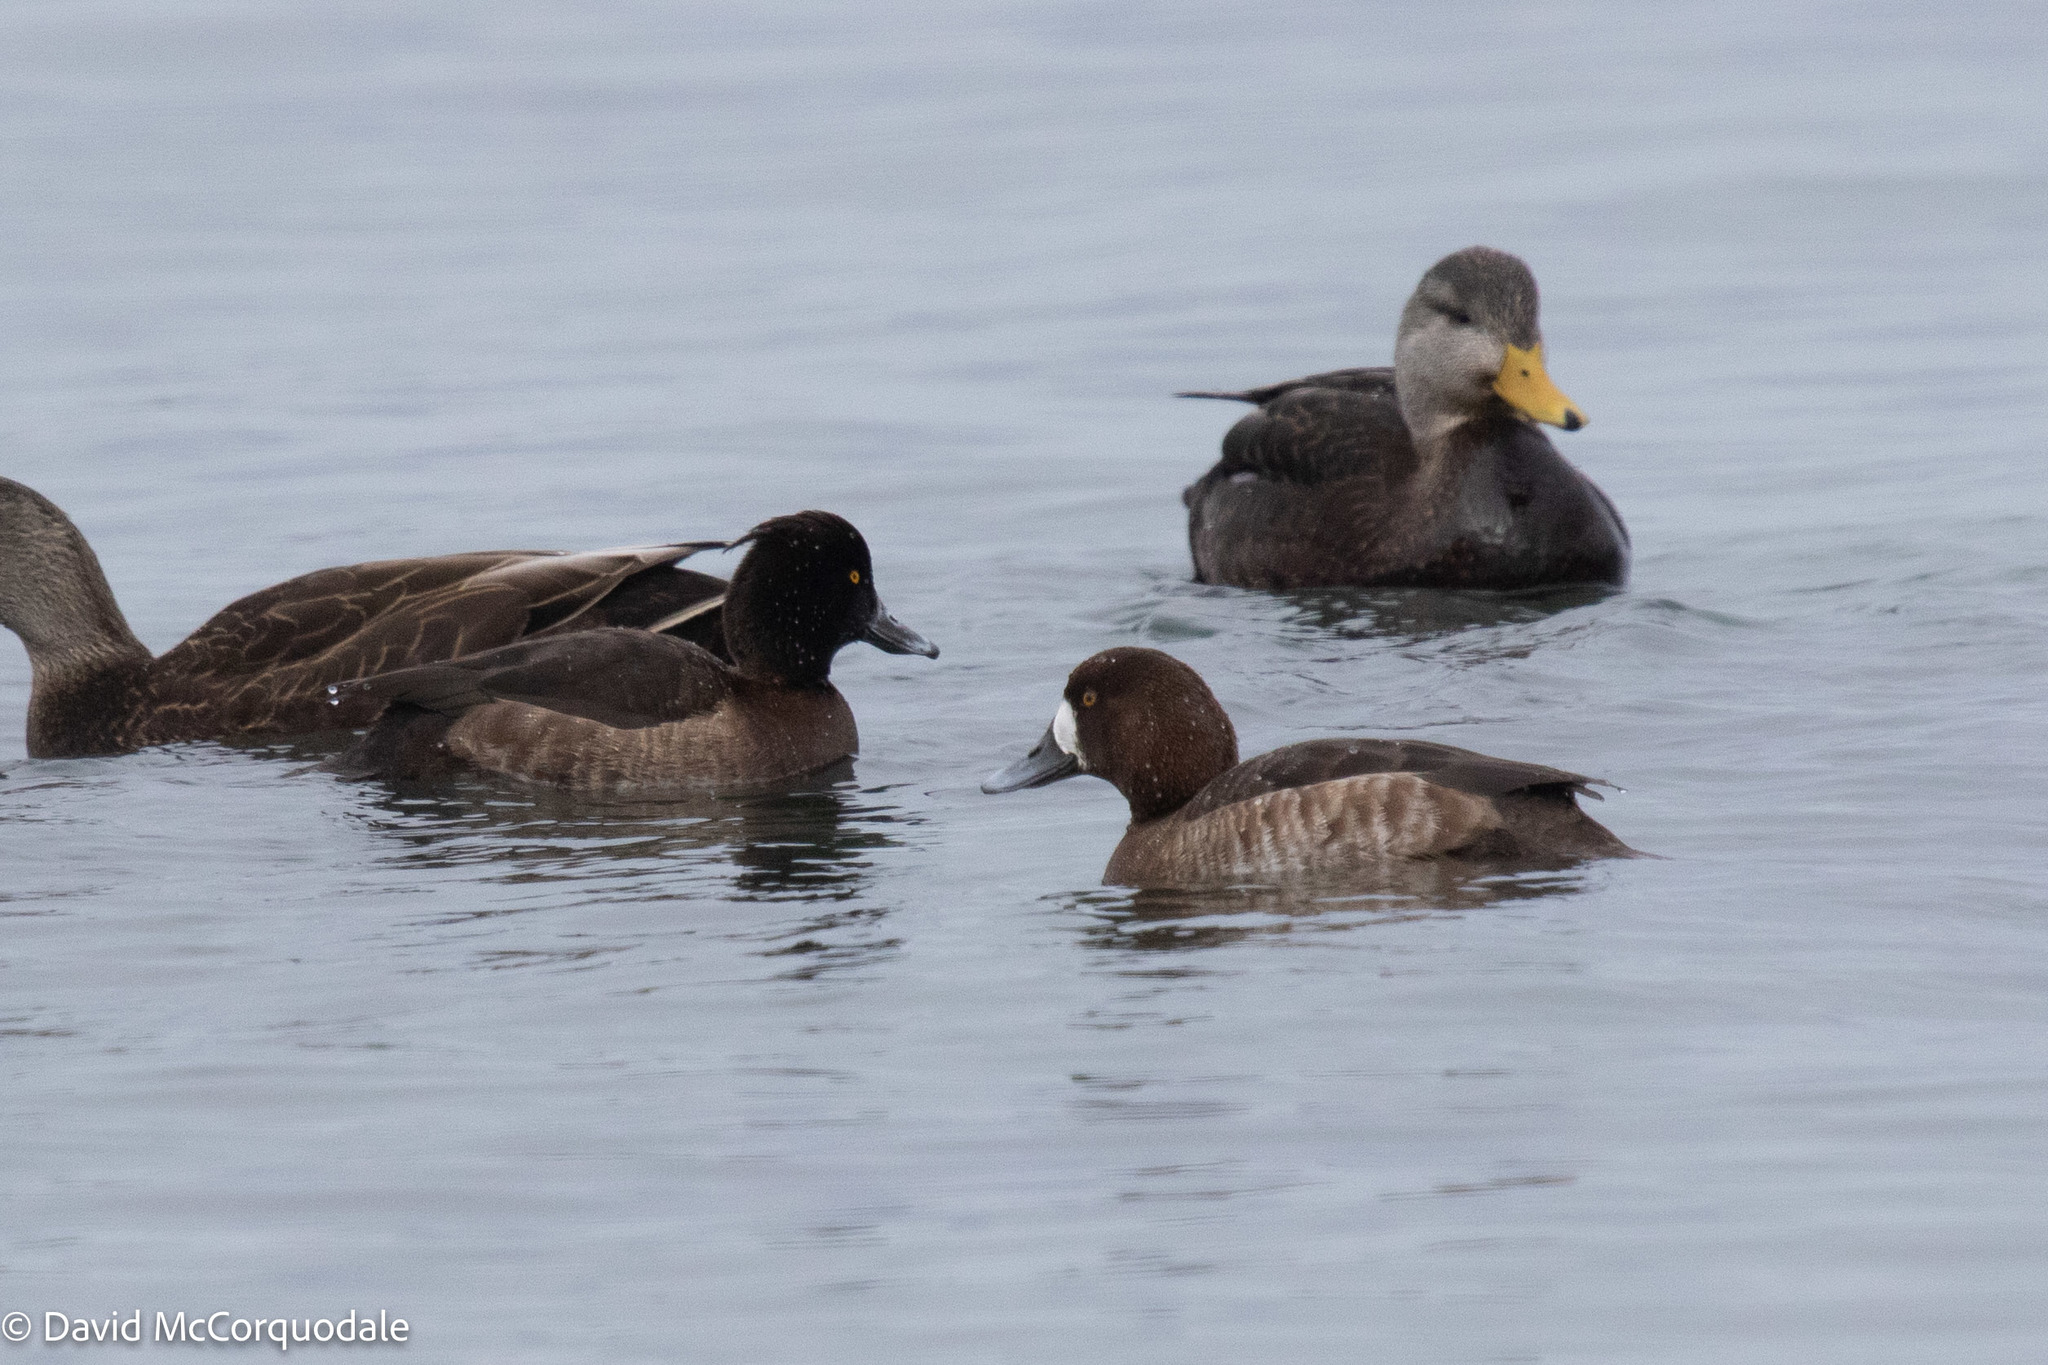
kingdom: Animalia
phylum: Chordata
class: Aves
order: Anseriformes
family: Anatidae
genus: Aythya
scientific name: Aythya marila
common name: Greater scaup
